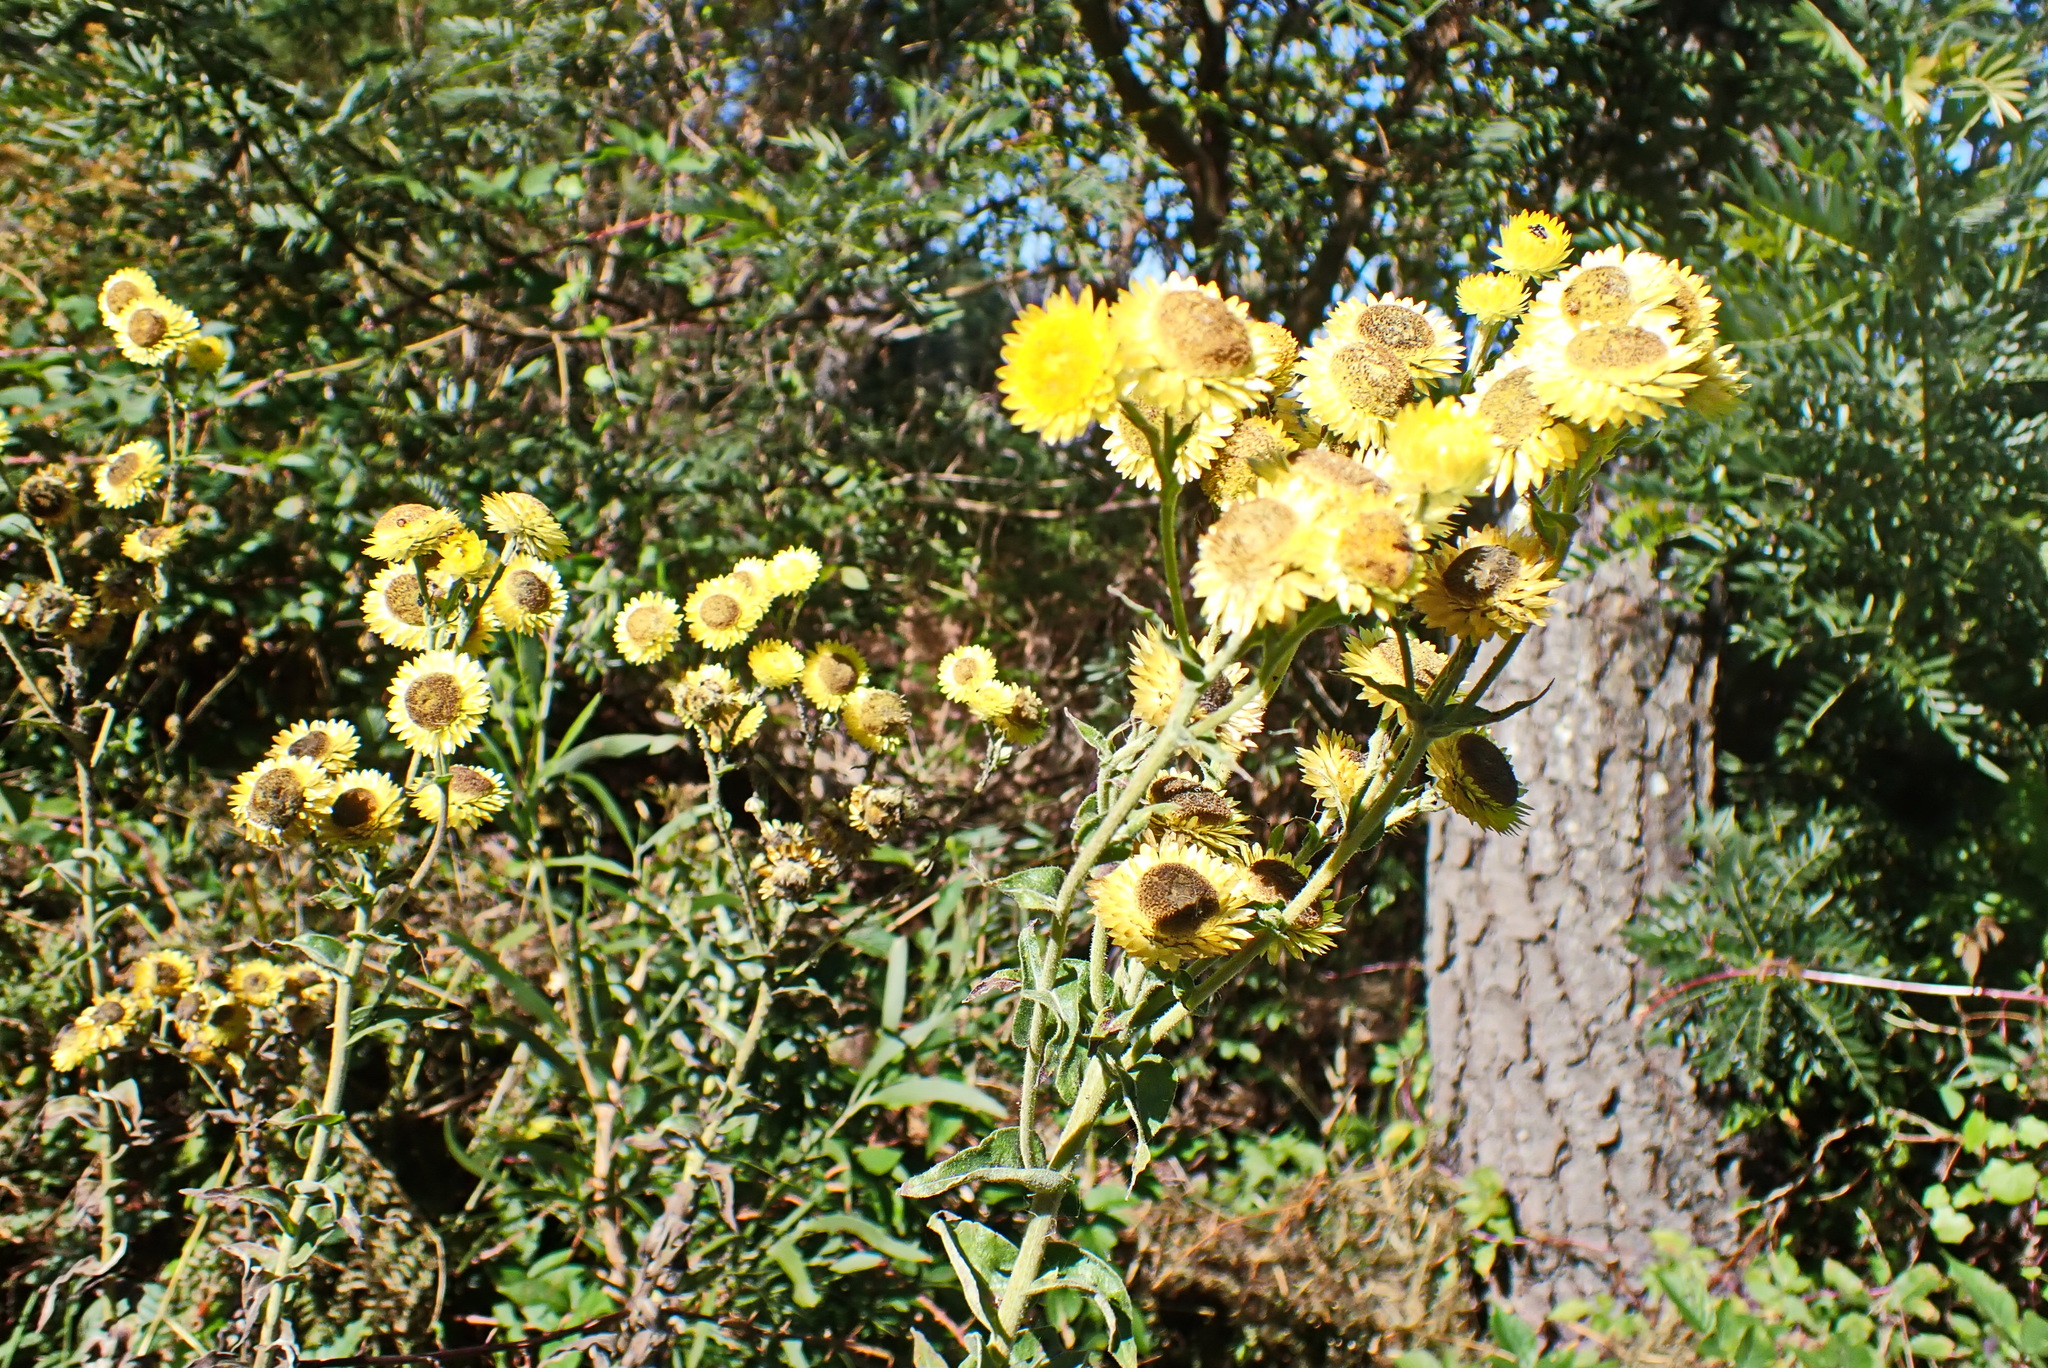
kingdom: Plantae
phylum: Tracheophyta
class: Magnoliopsida
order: Asterales
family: Asteraceae
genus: Helichrysum
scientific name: Helichrysum foetidum
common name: Stinking everlasting
